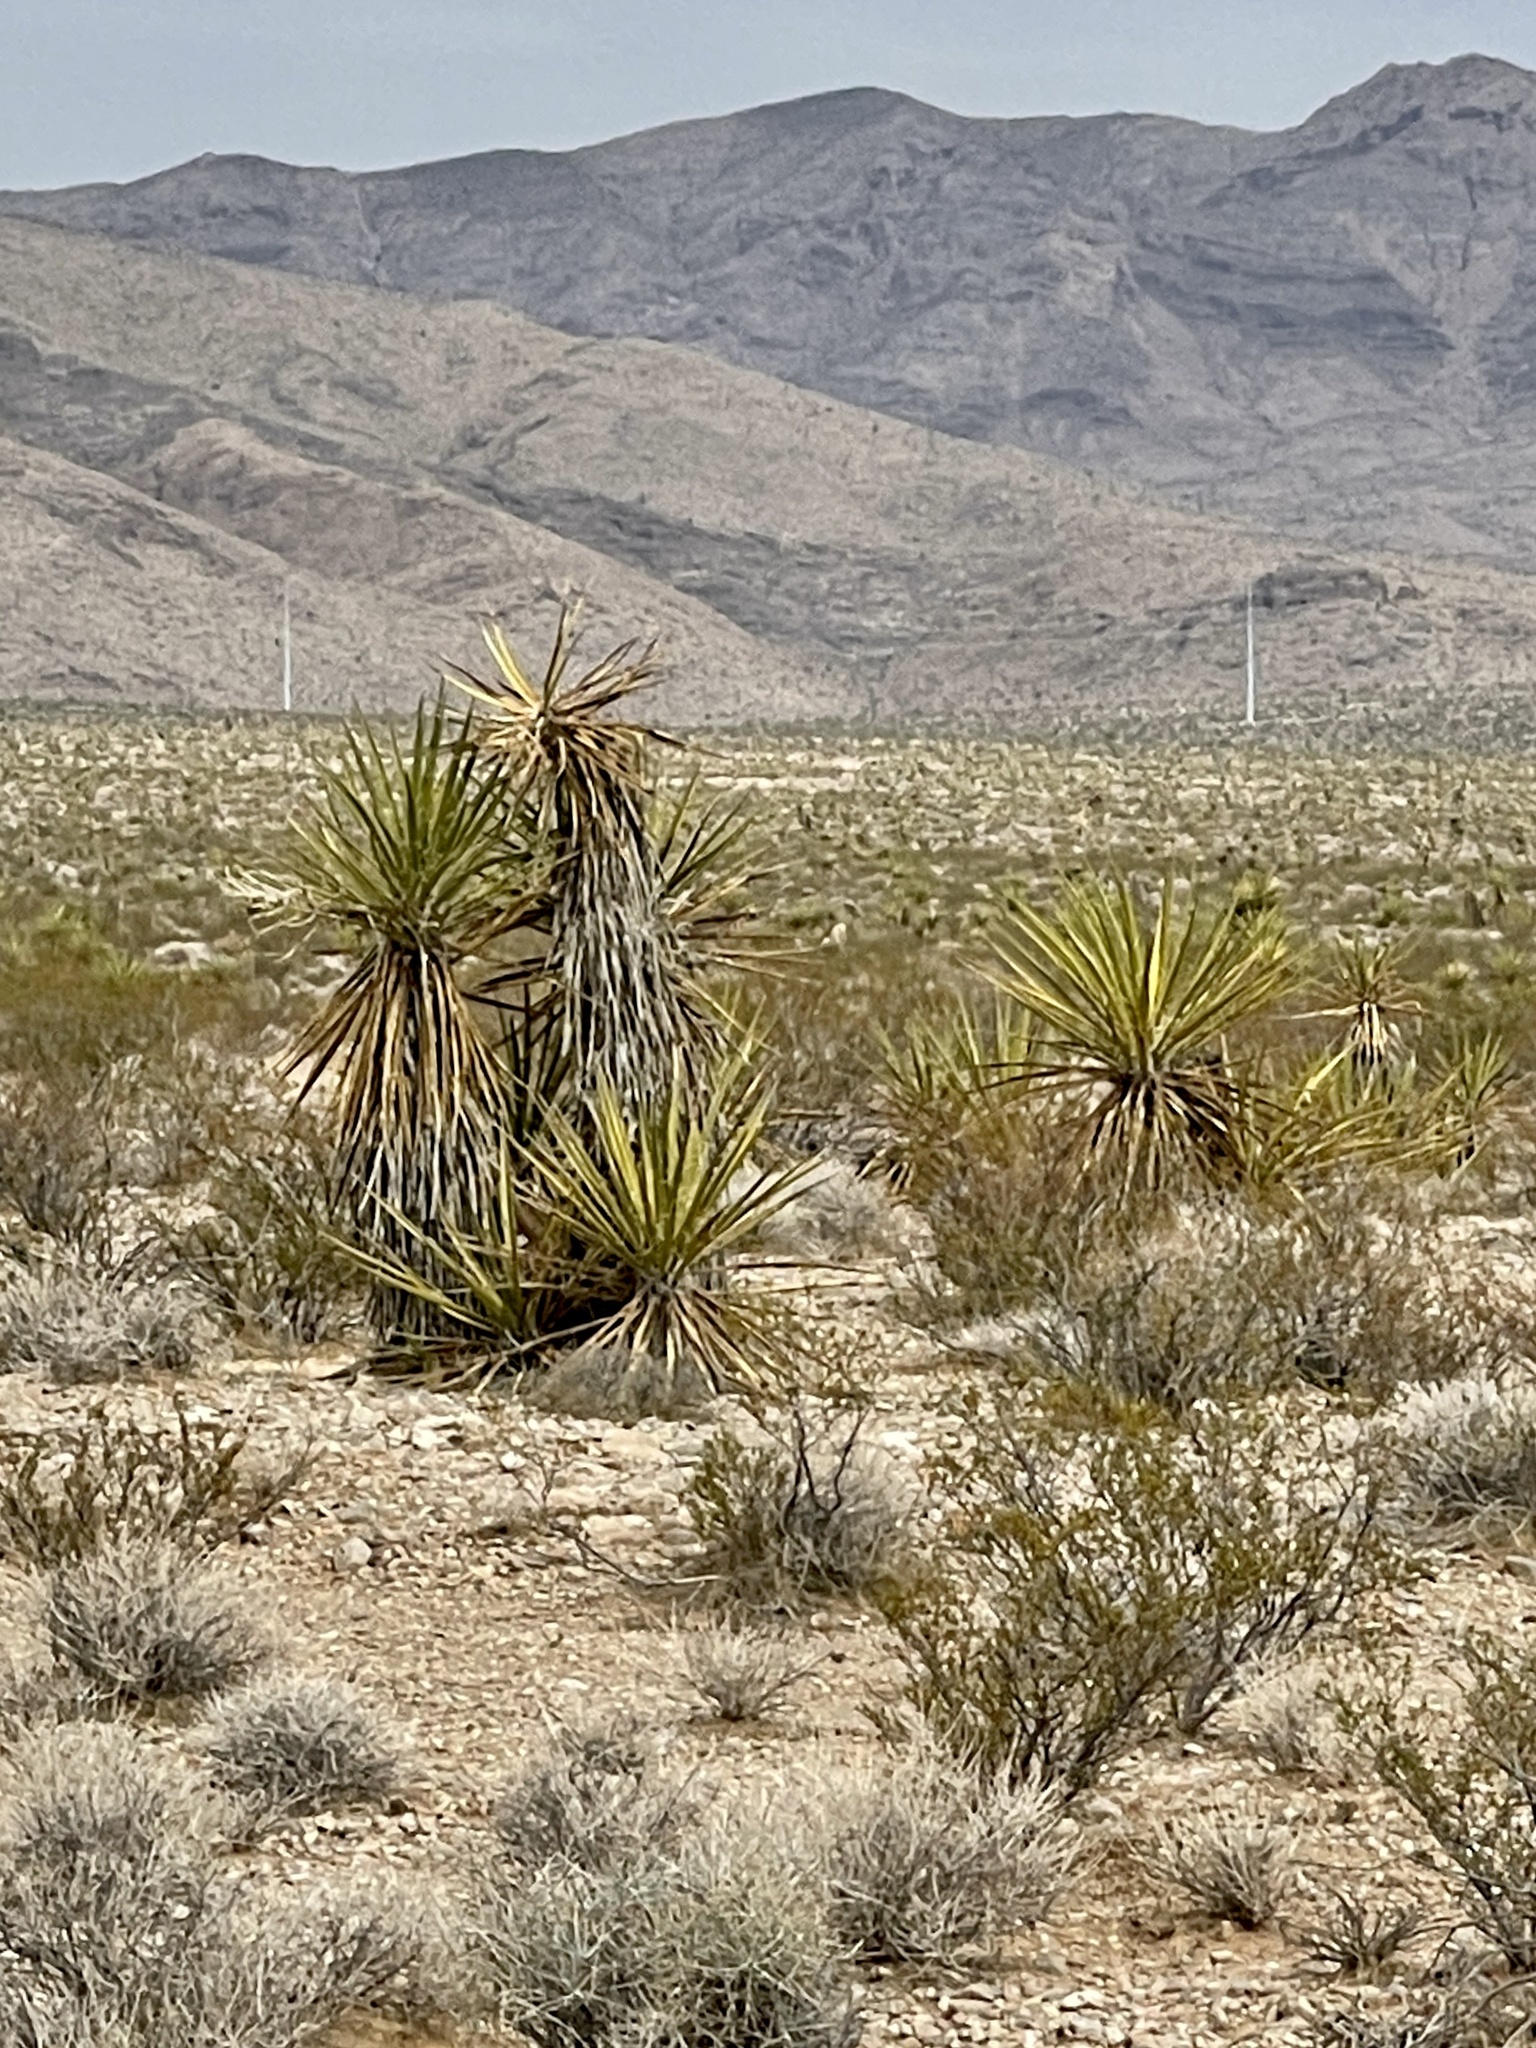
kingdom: Plantae
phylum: Tracheophyta
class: Liliopsida
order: Asparagales
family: Asparagaceae
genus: Yucca
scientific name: Yucca schidigera
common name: Mojave yucca
